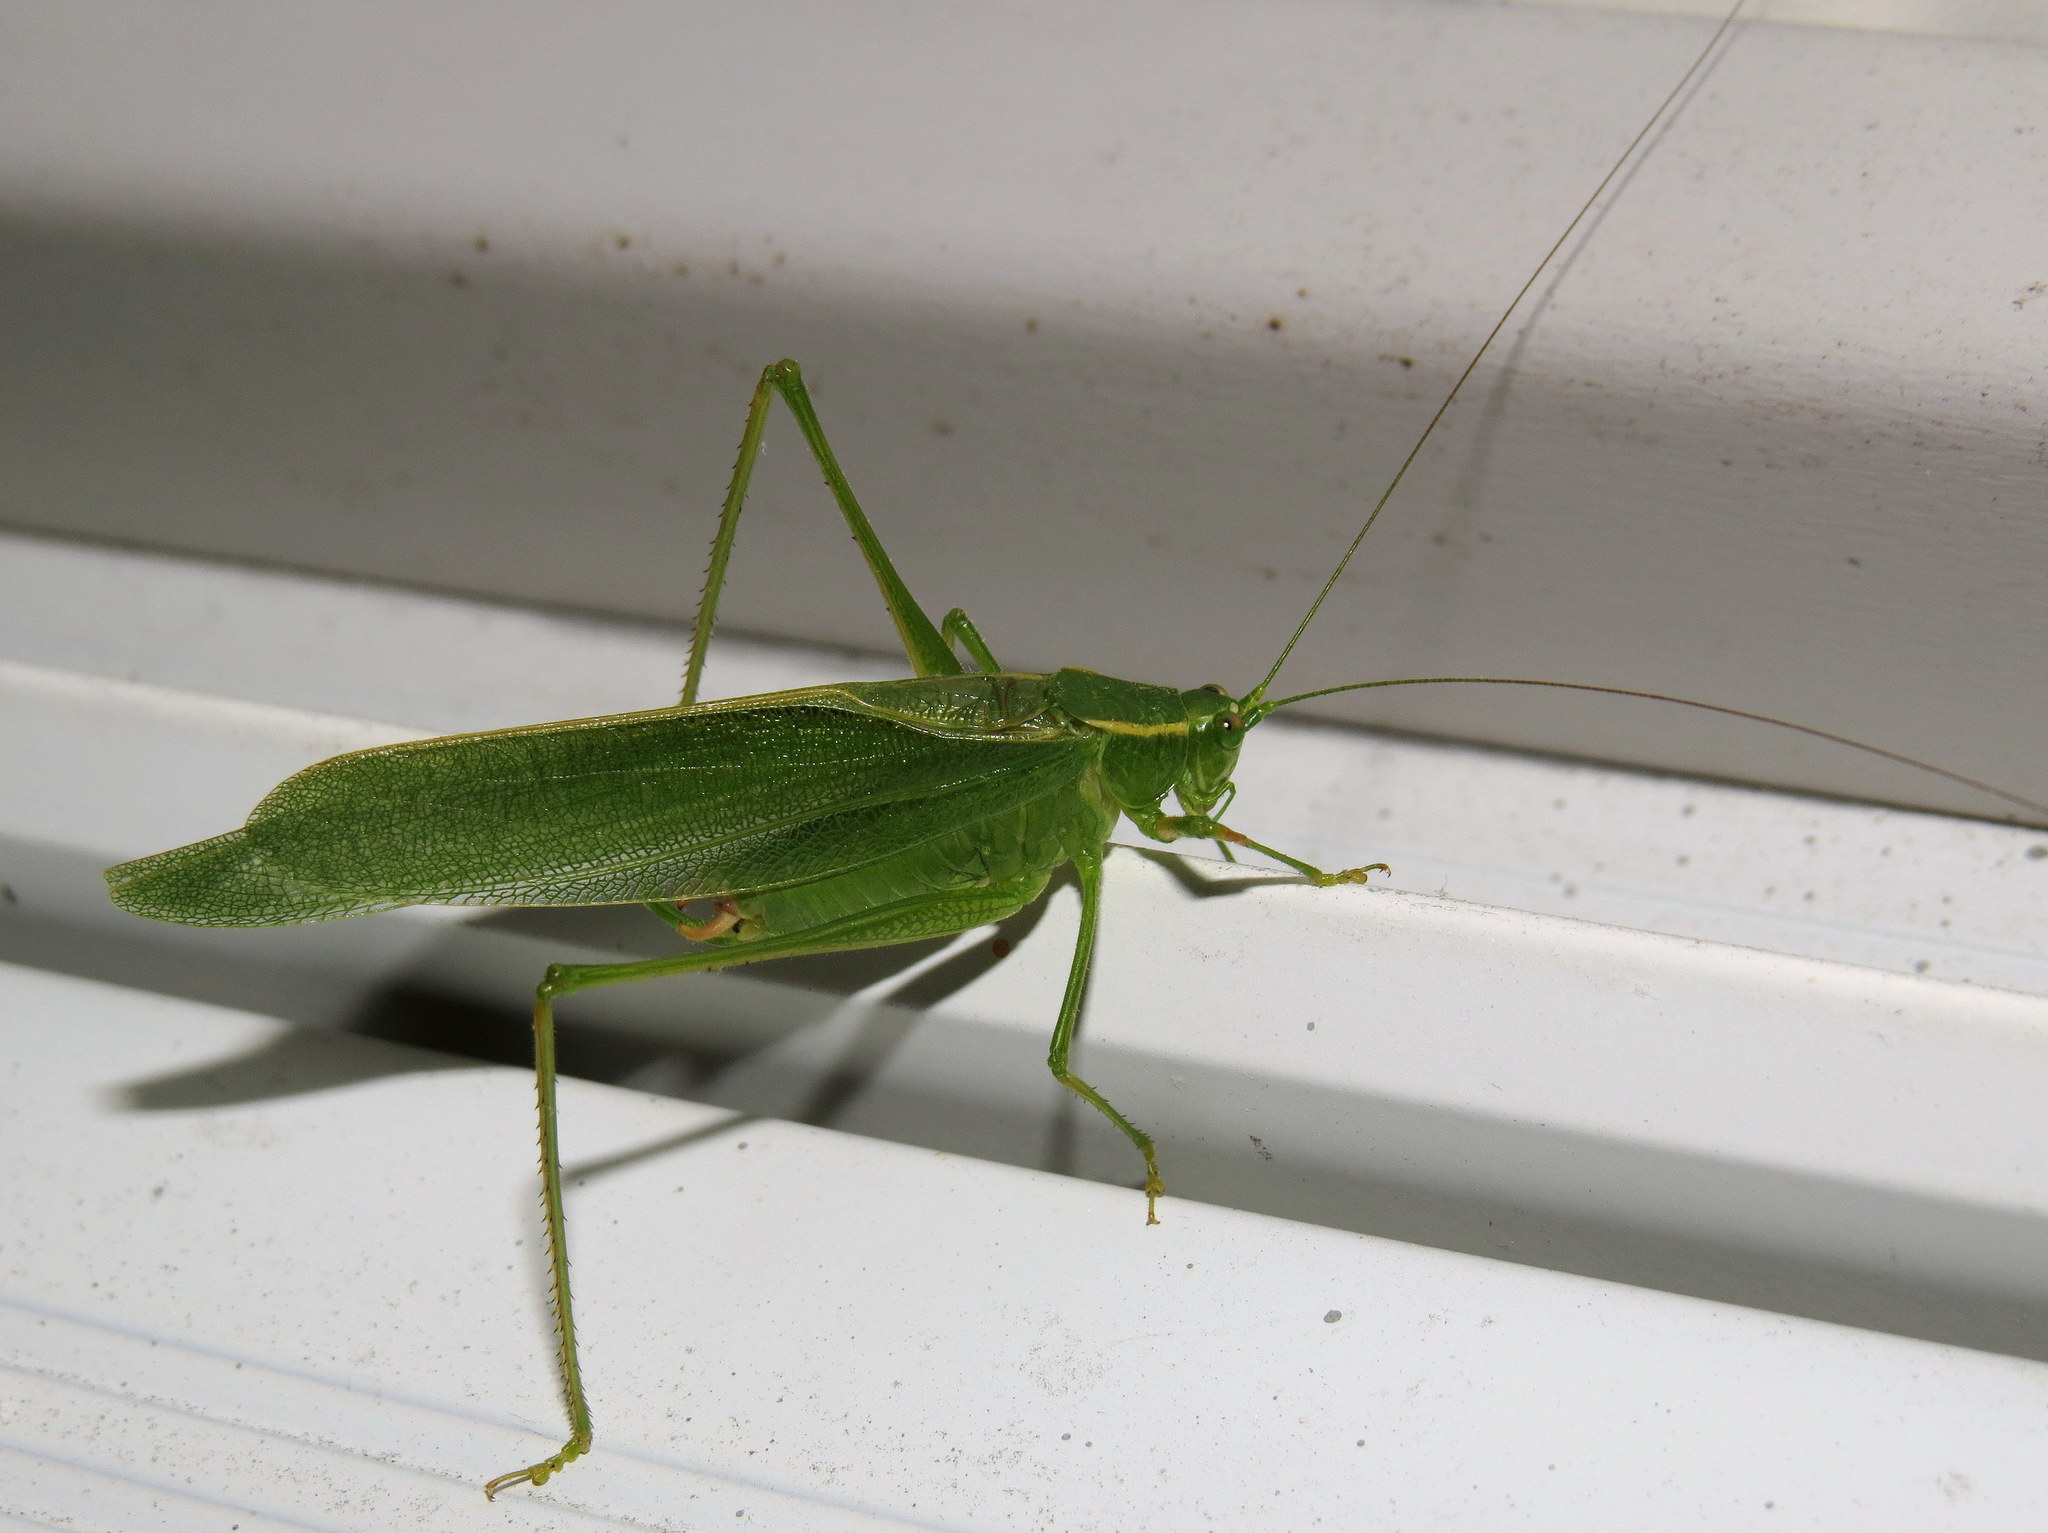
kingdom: Animalia
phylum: Arthropoda
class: Insecta
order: Orthoptera
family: Tettigoniidae
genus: Scudderia
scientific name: Scudderia septentrionalis
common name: Northern bush-katydid
